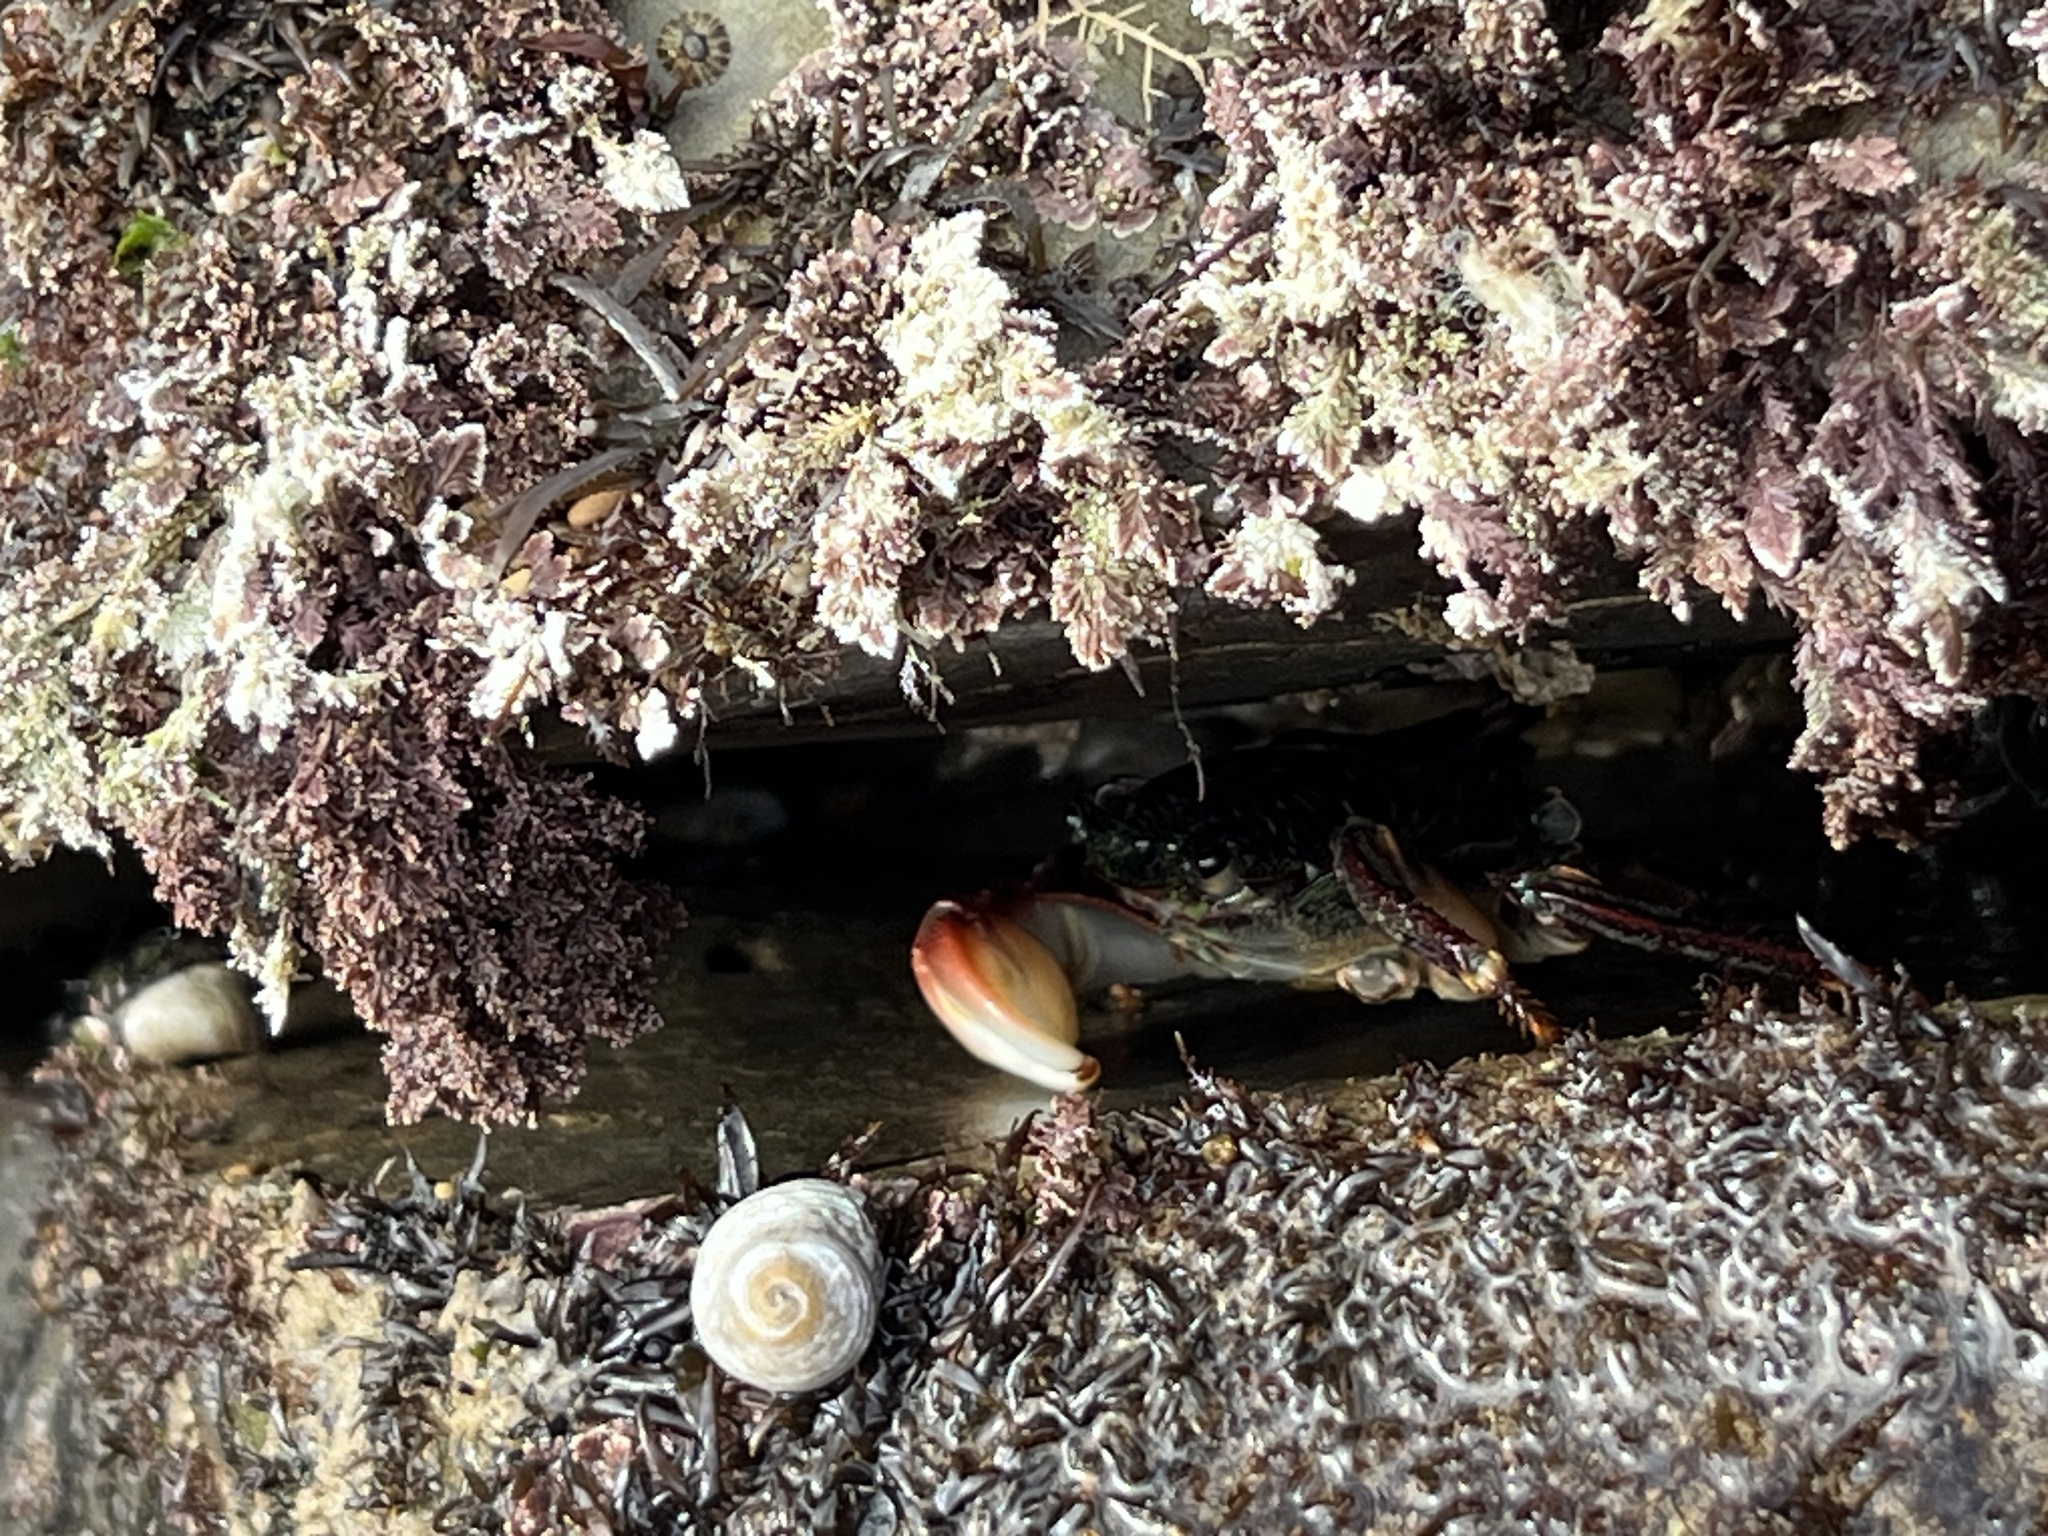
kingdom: Animalia
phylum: Arthropoda
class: Malacostraca
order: Decapoda
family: Grapsidae
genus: Pachygrapsus
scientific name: Pachygrapsus crassipes
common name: Striped shore crab
